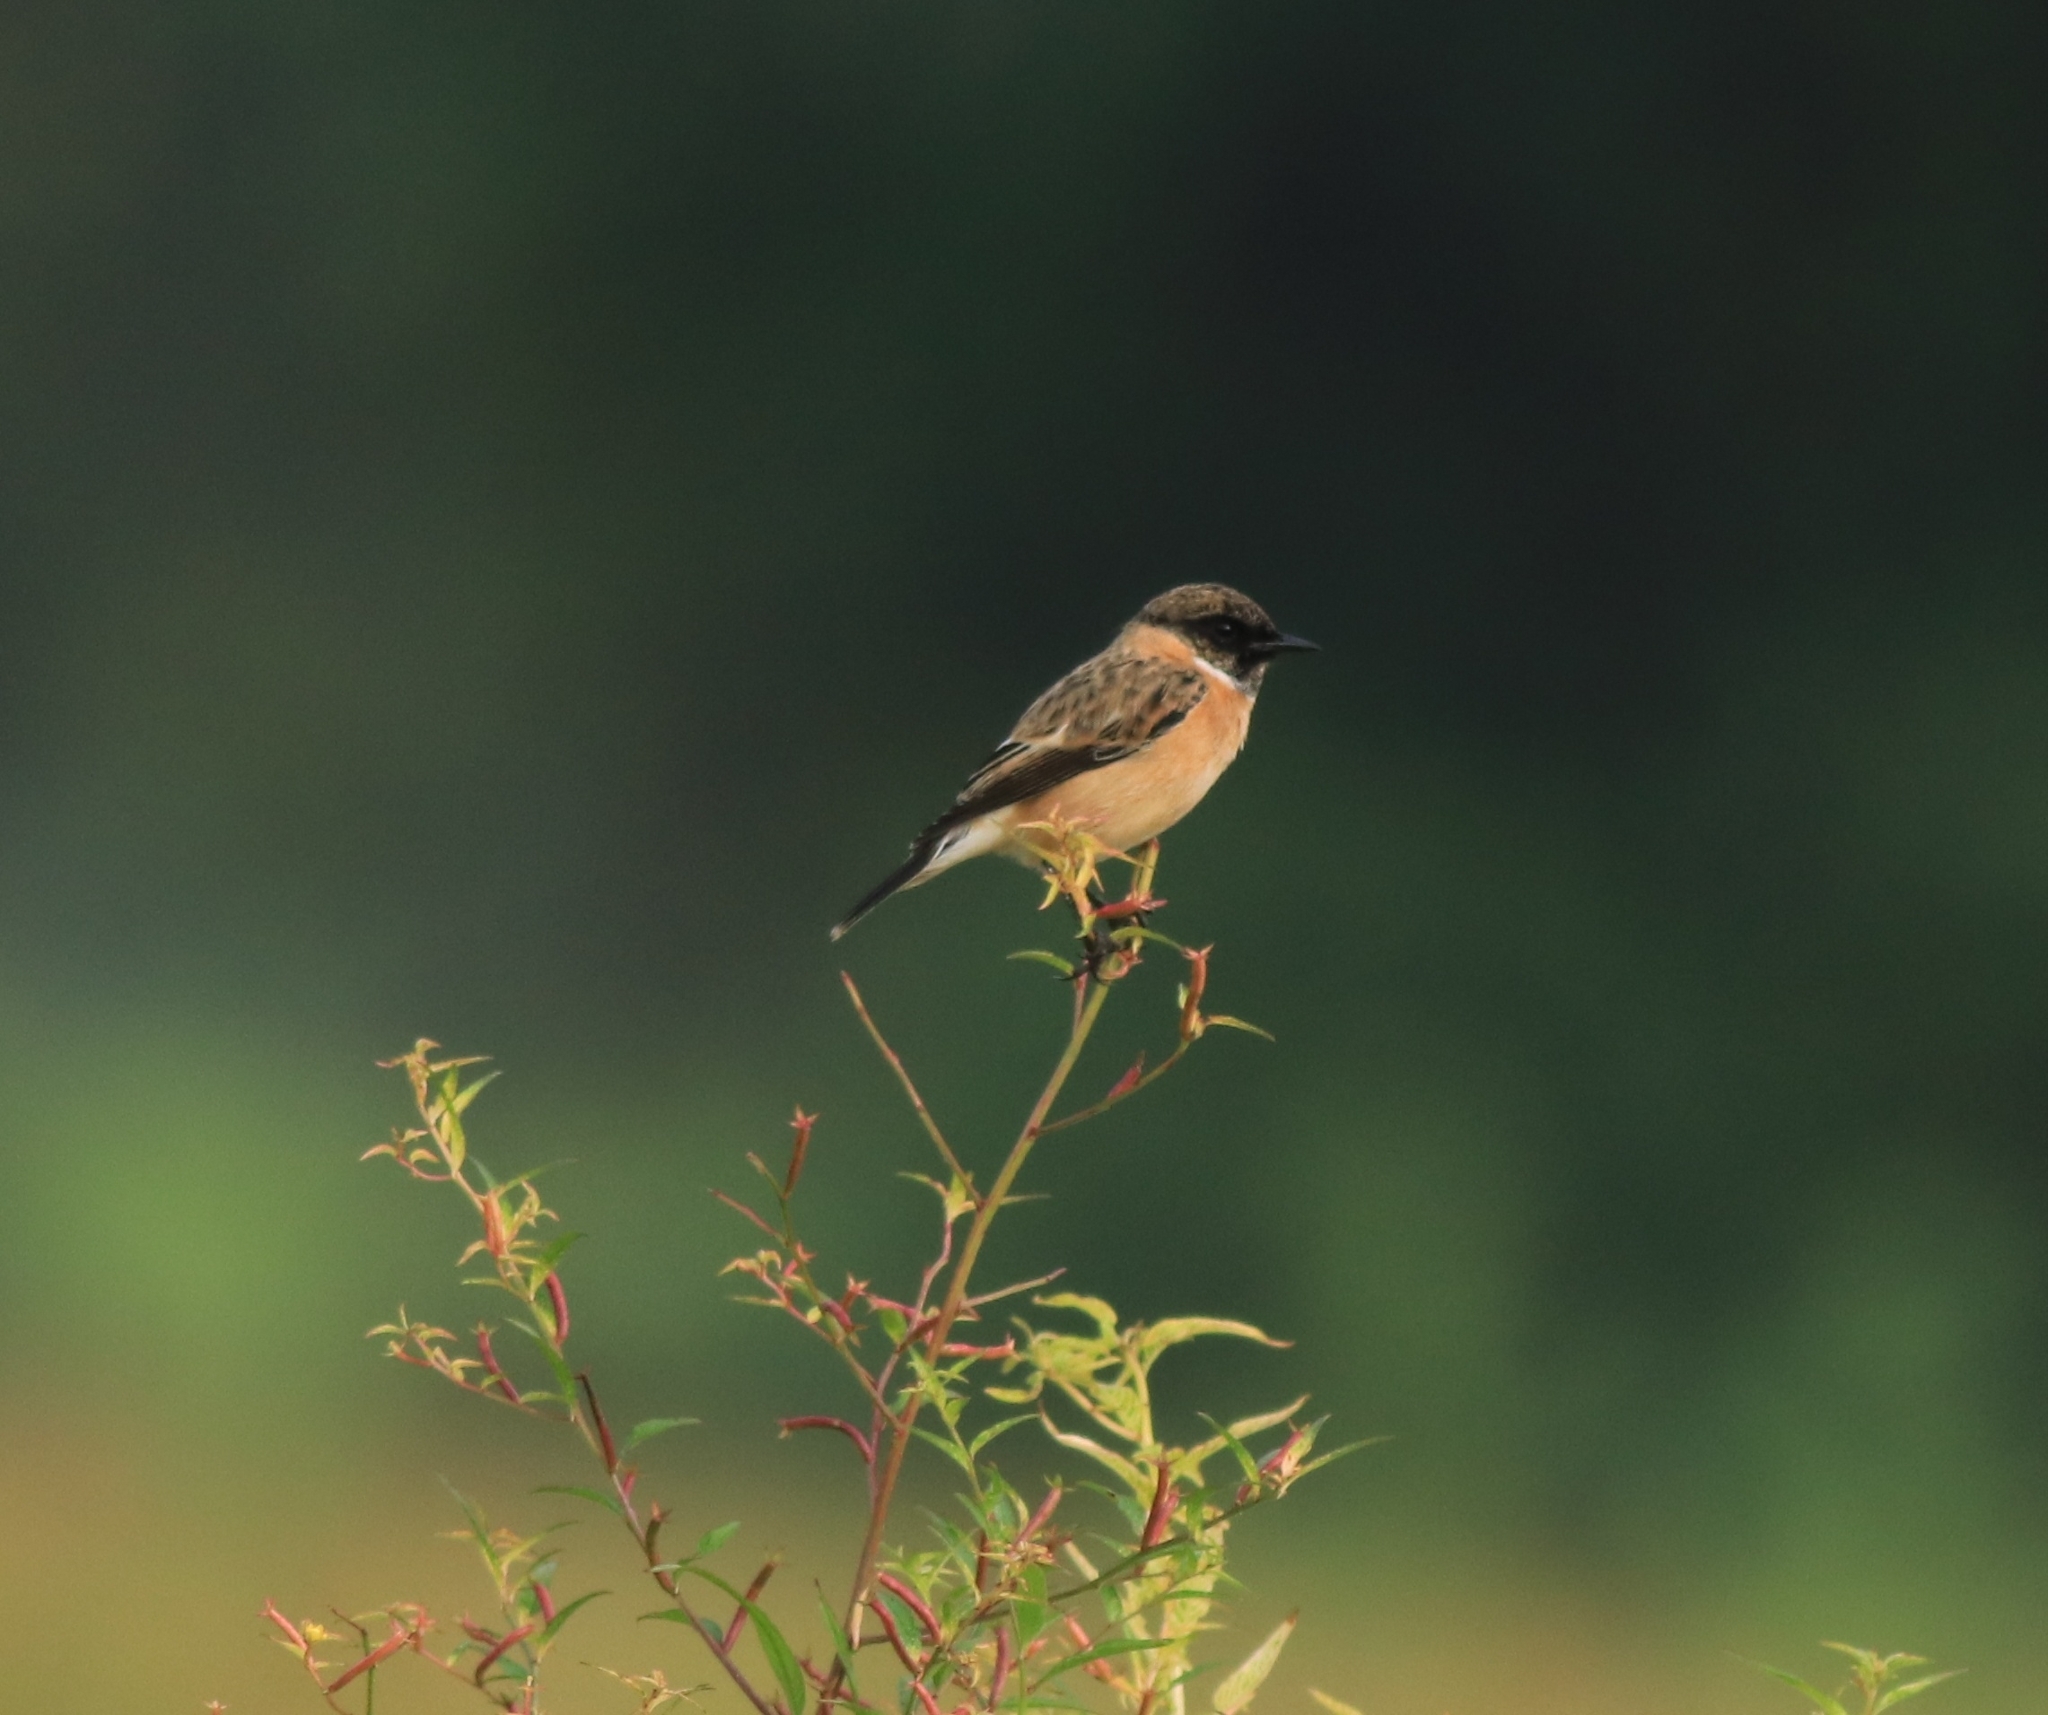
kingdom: Animalia
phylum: Chordata
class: Aves
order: Passeriformes
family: Muscicapidae
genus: Saxicola
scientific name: Saxicola maurus
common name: Siberian stonechat
